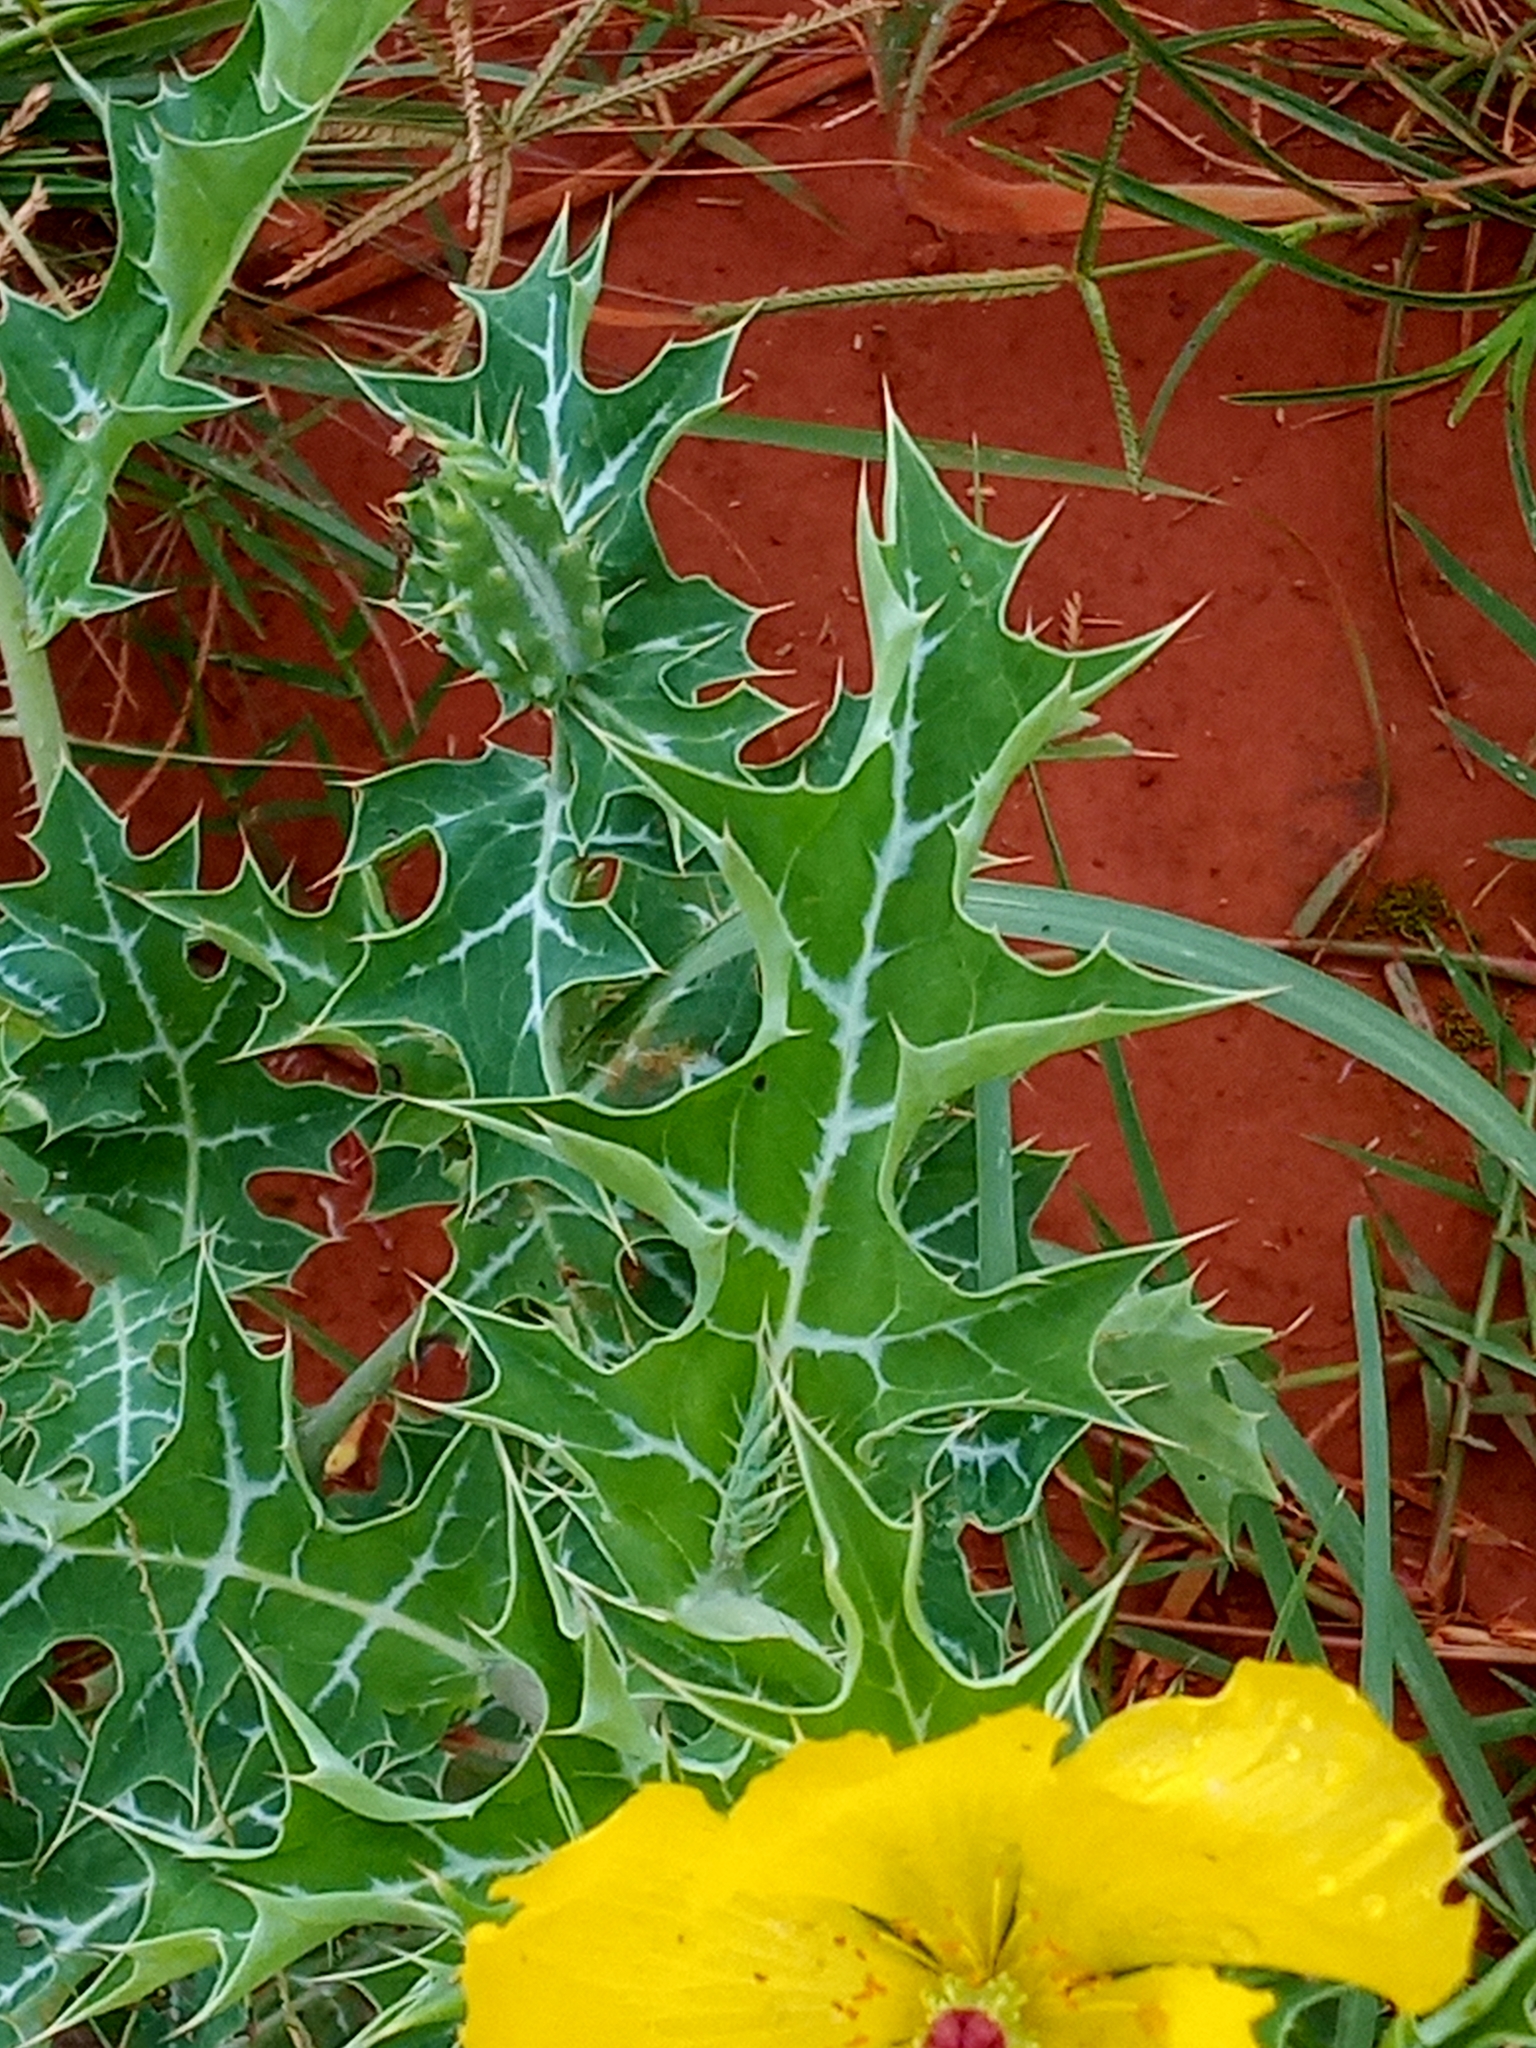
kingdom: Plantae
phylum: Tracheophyta
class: Magnoliopsida
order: Ranunculales
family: Papaveraceae
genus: Argemone
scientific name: Argemone mexicana
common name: Mexican poppy
